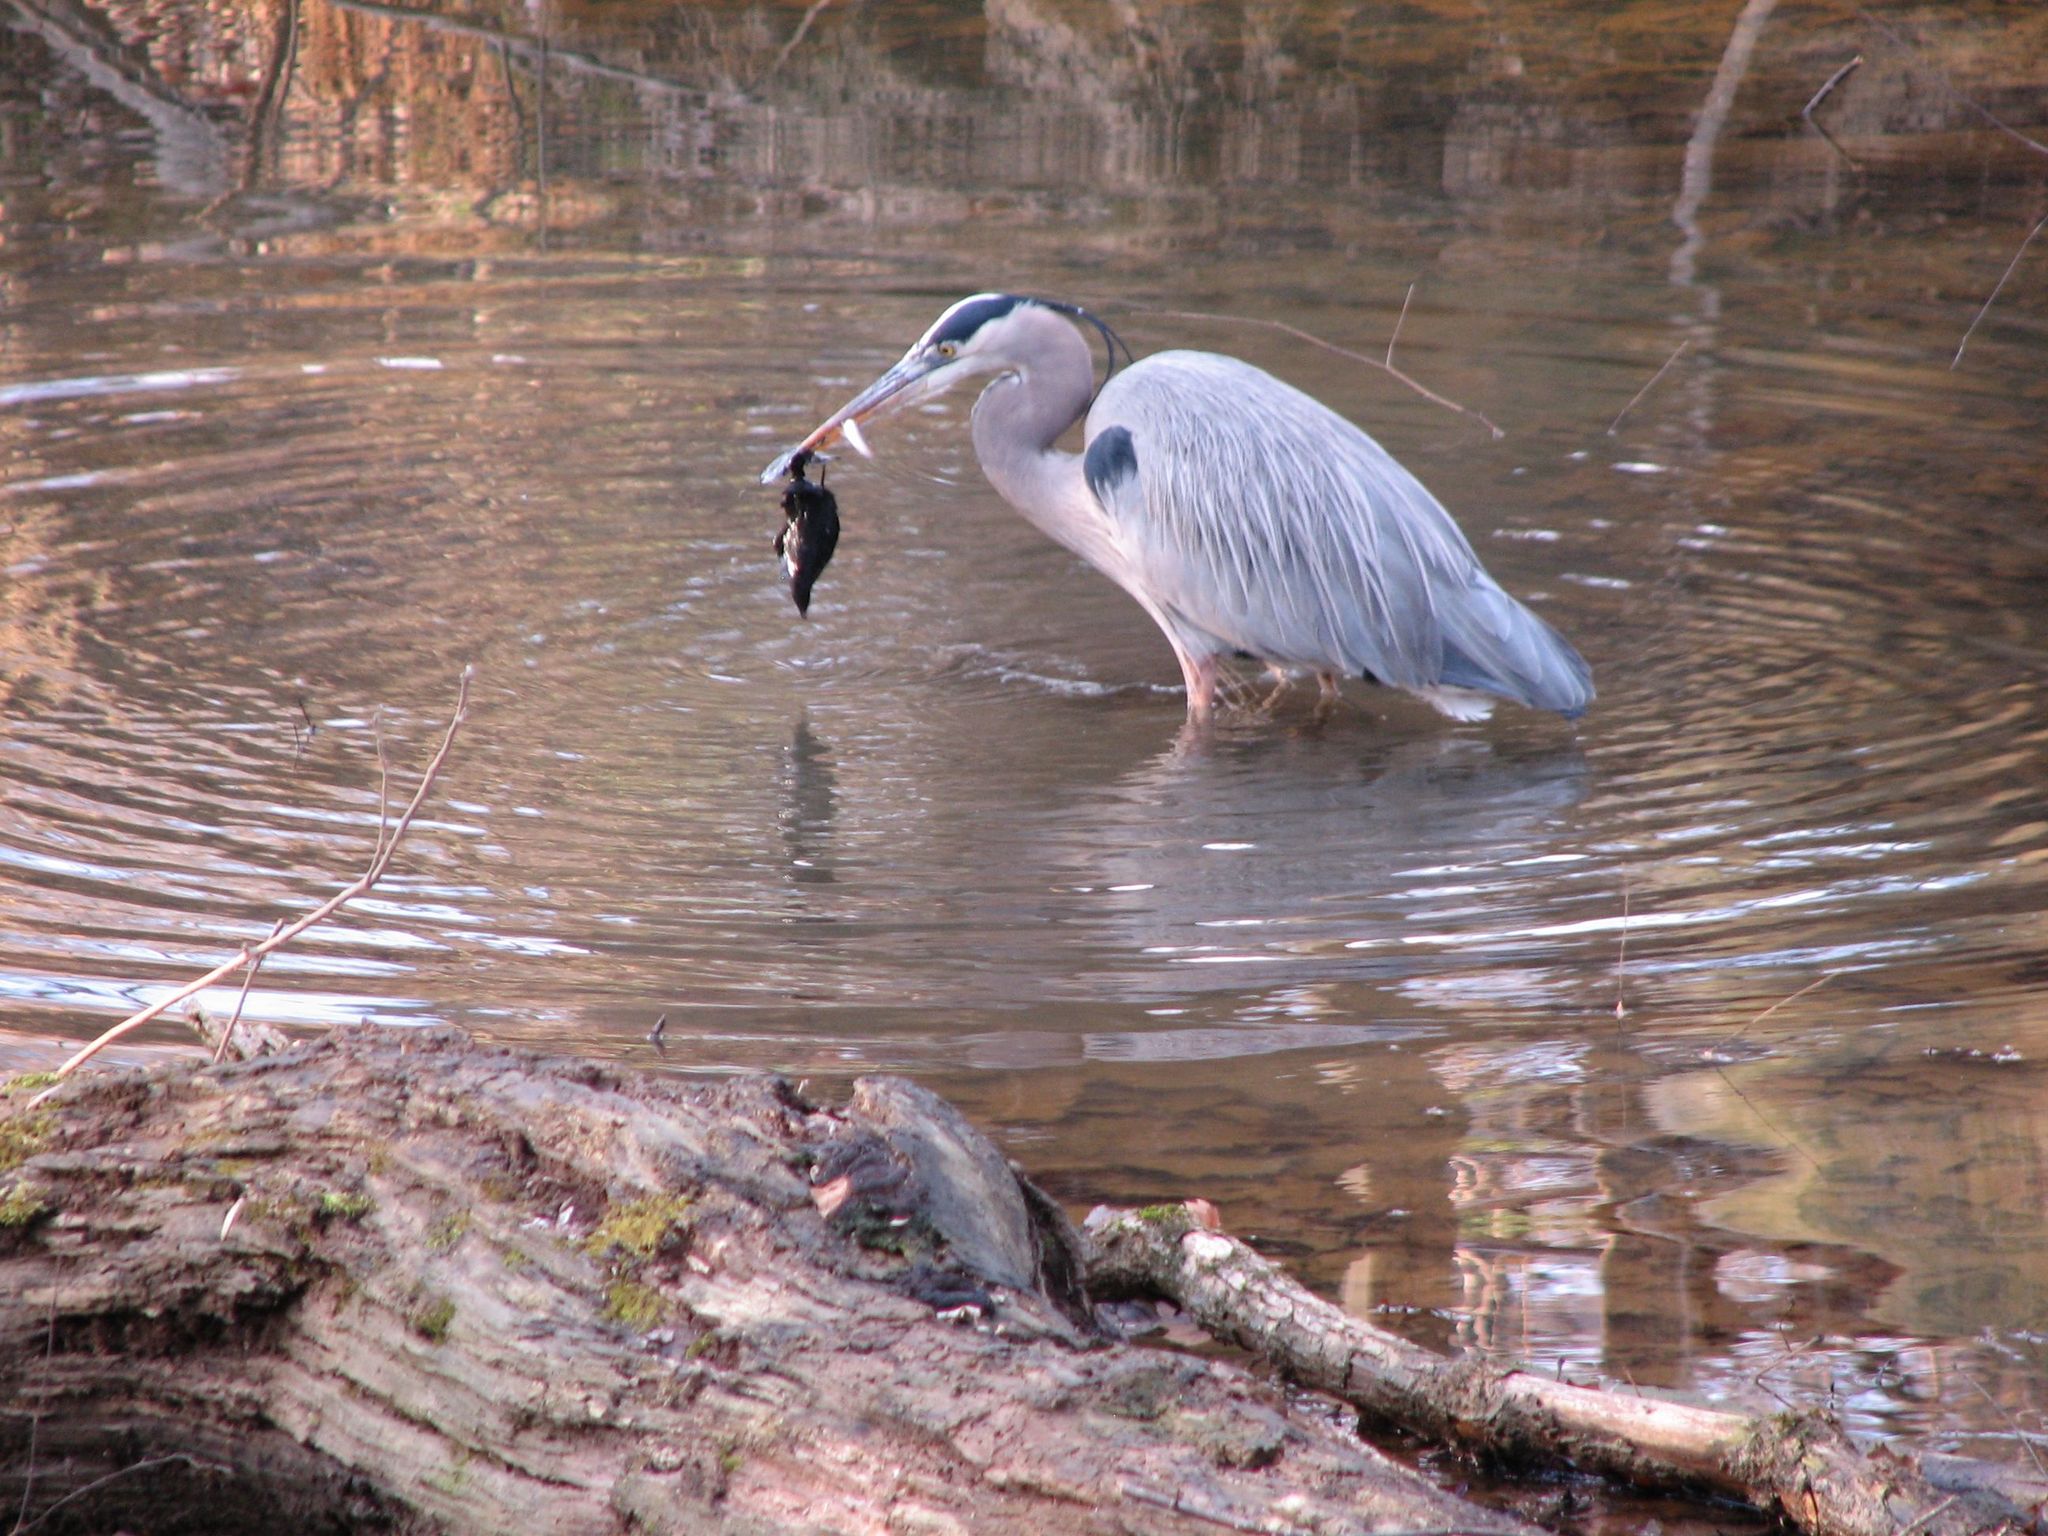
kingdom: Animalia
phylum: Chordata
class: Aves
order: Pelecaniformes
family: Ardeidae
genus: Ardea
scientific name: Ardea herodias
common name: Great blue heron
